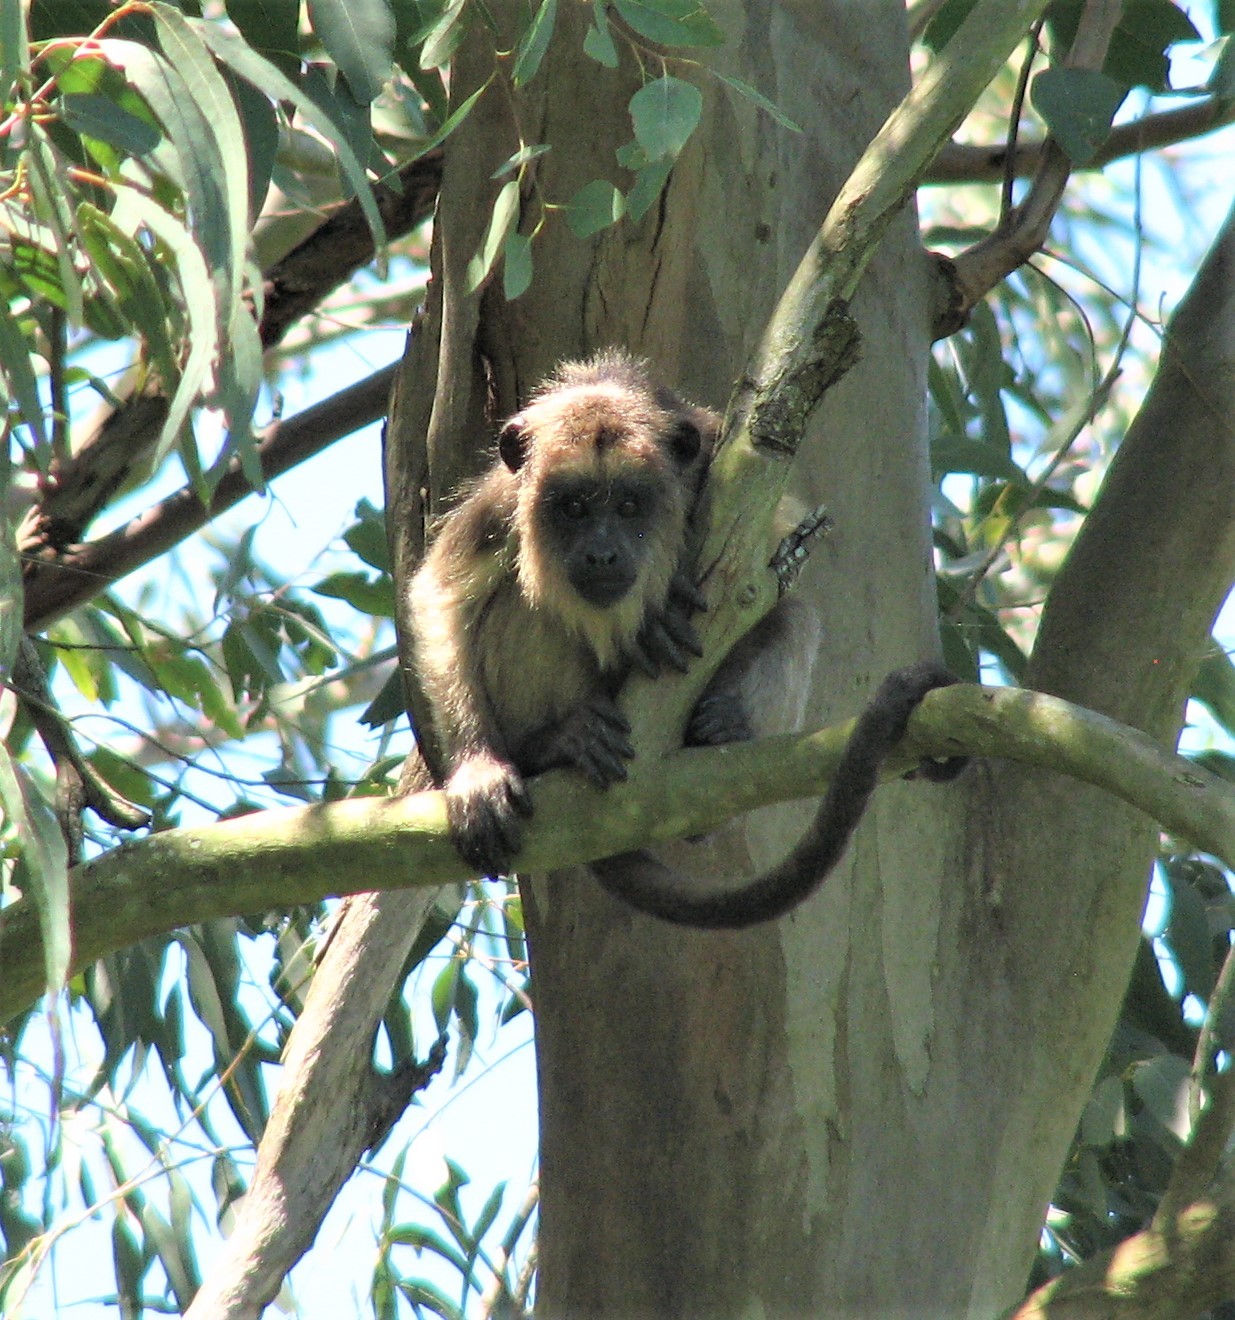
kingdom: Animalia
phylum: Chordata
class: Mammalia
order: Primates
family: Atelidae
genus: Alouatta
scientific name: Alouatta caraya
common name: Black howler
